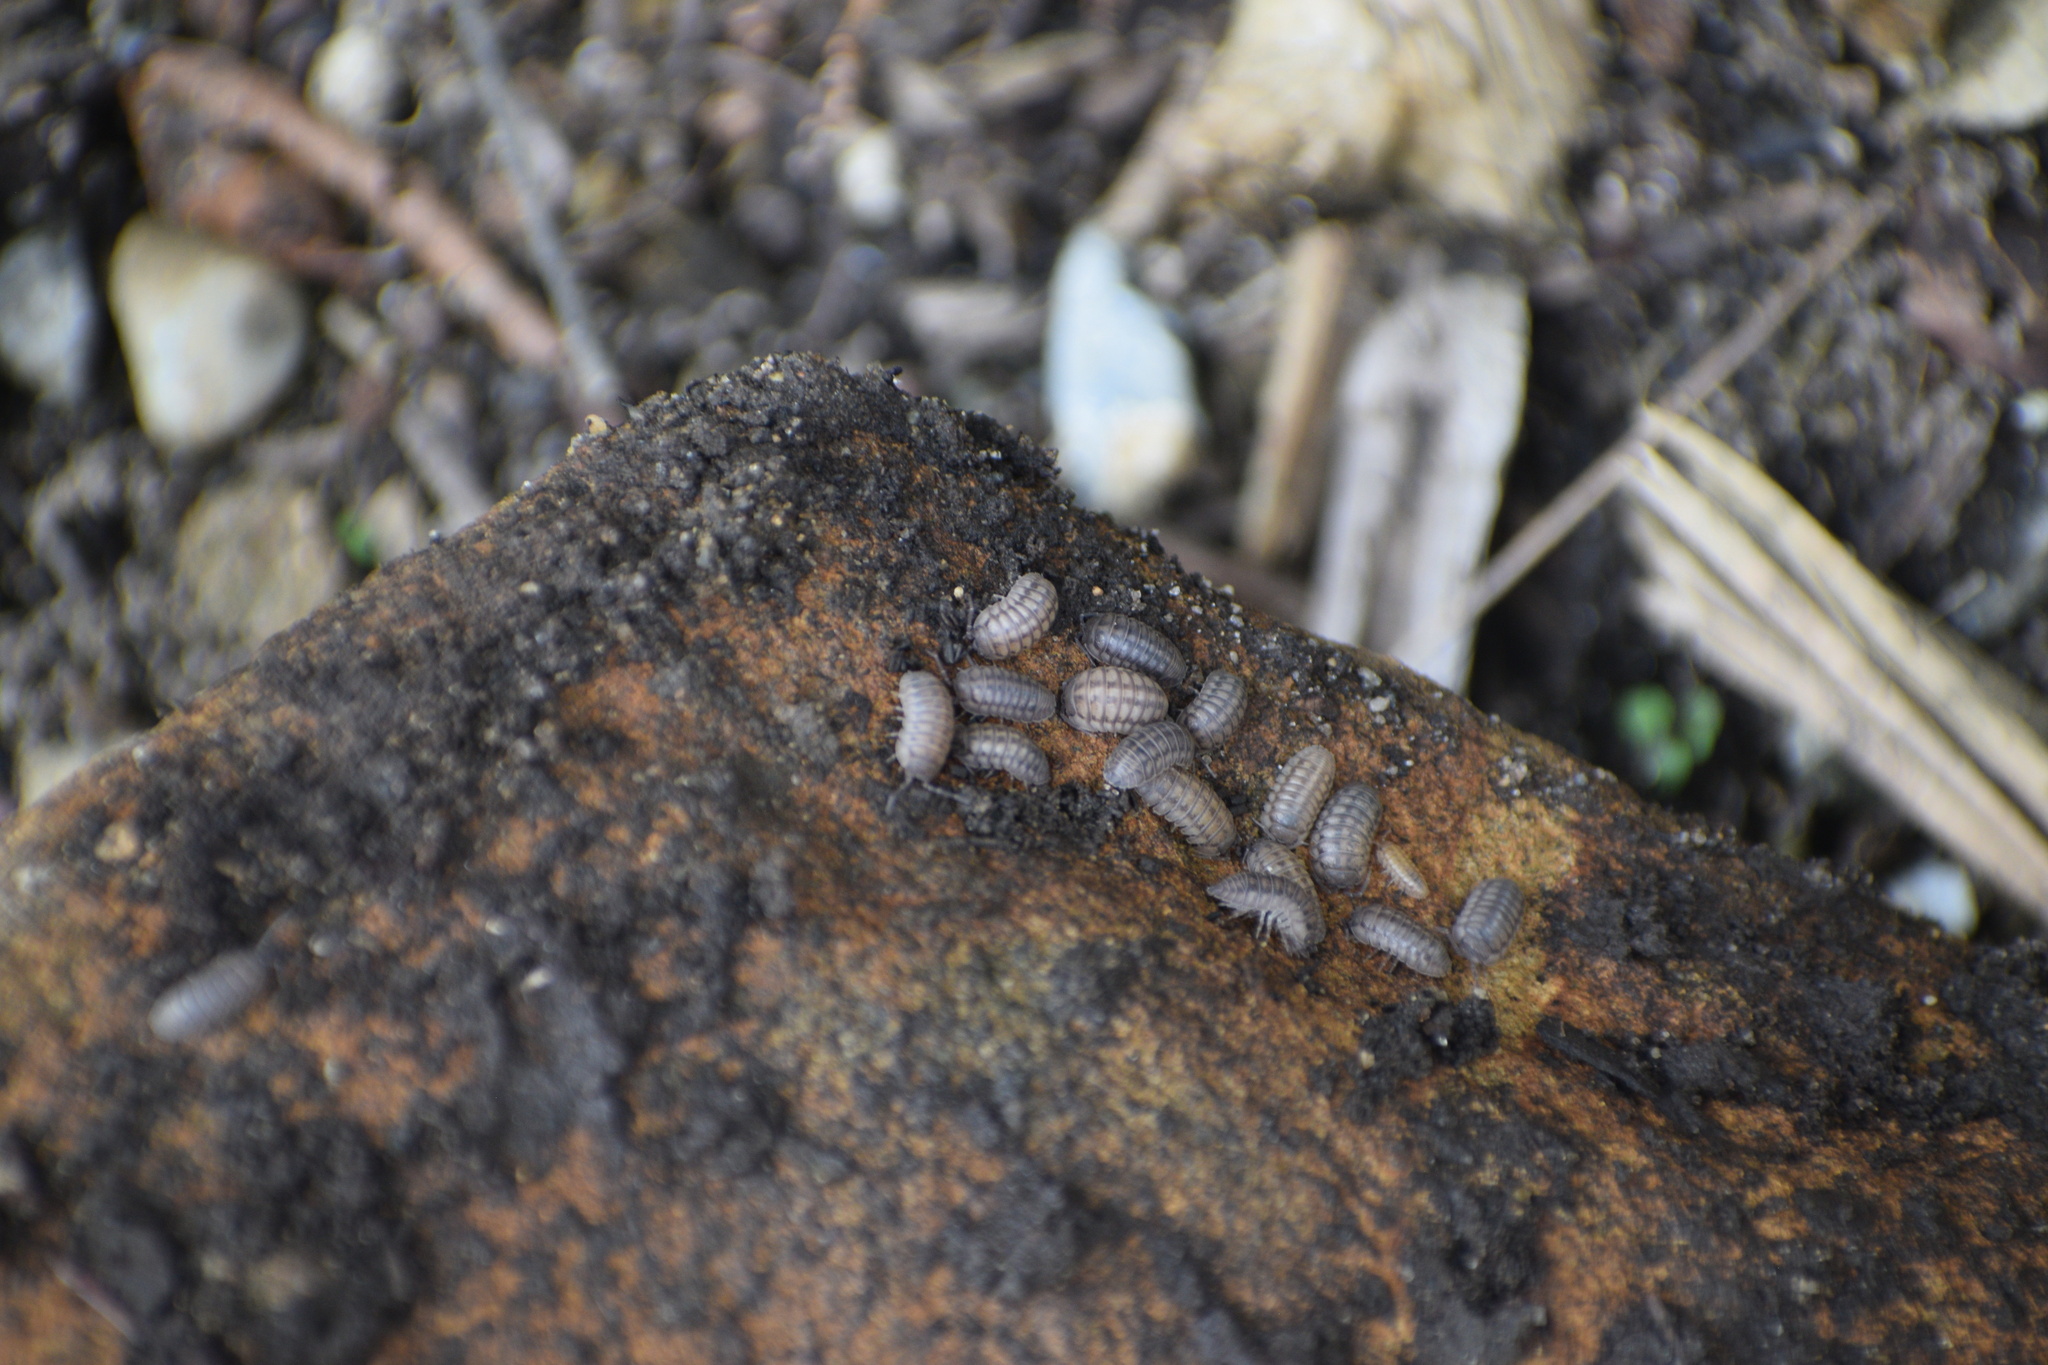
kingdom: Animalia
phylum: Arthropoda
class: Malacostraca
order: Isopoda
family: Armadillidiidae
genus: Armadillidium
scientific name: Armadillidium nasatum
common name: Isopod
